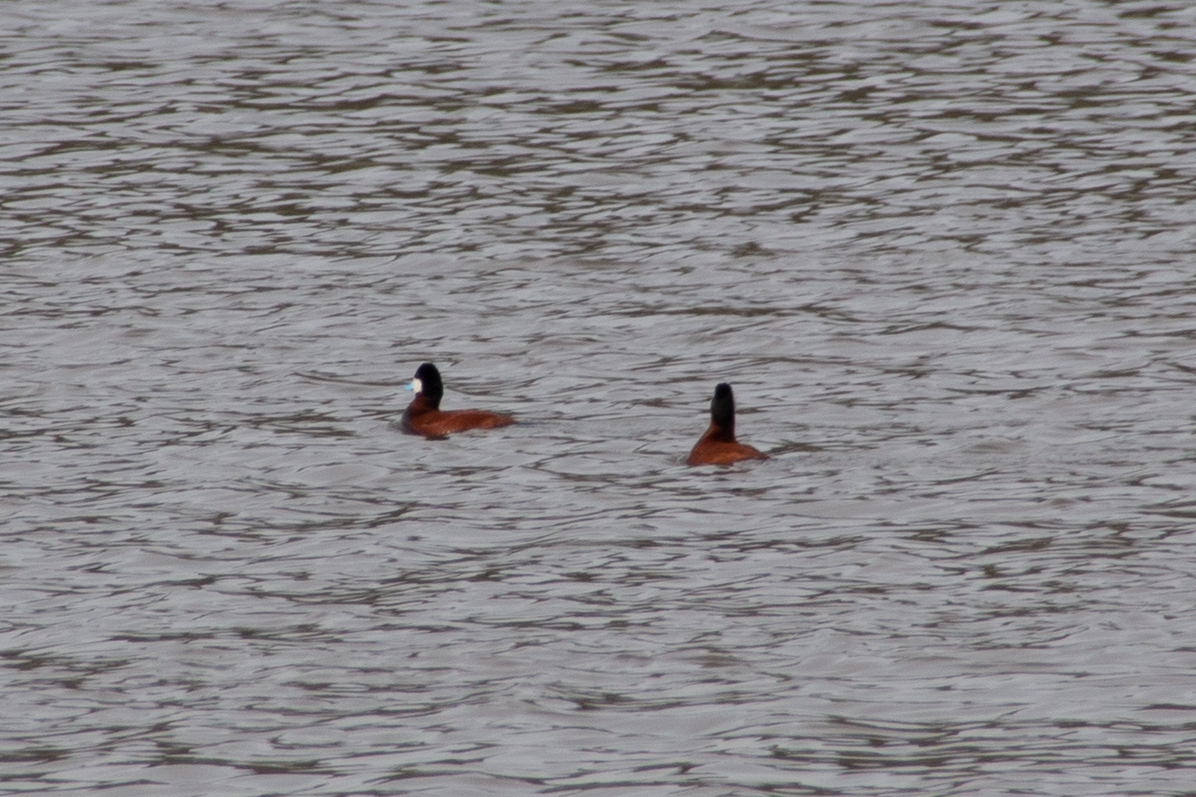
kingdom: Animalia
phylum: Chordata
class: Aves
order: Anseriformes
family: Anatidae
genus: Oxyura
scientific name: Oxyura jamaicensis
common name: Ruddy duck
